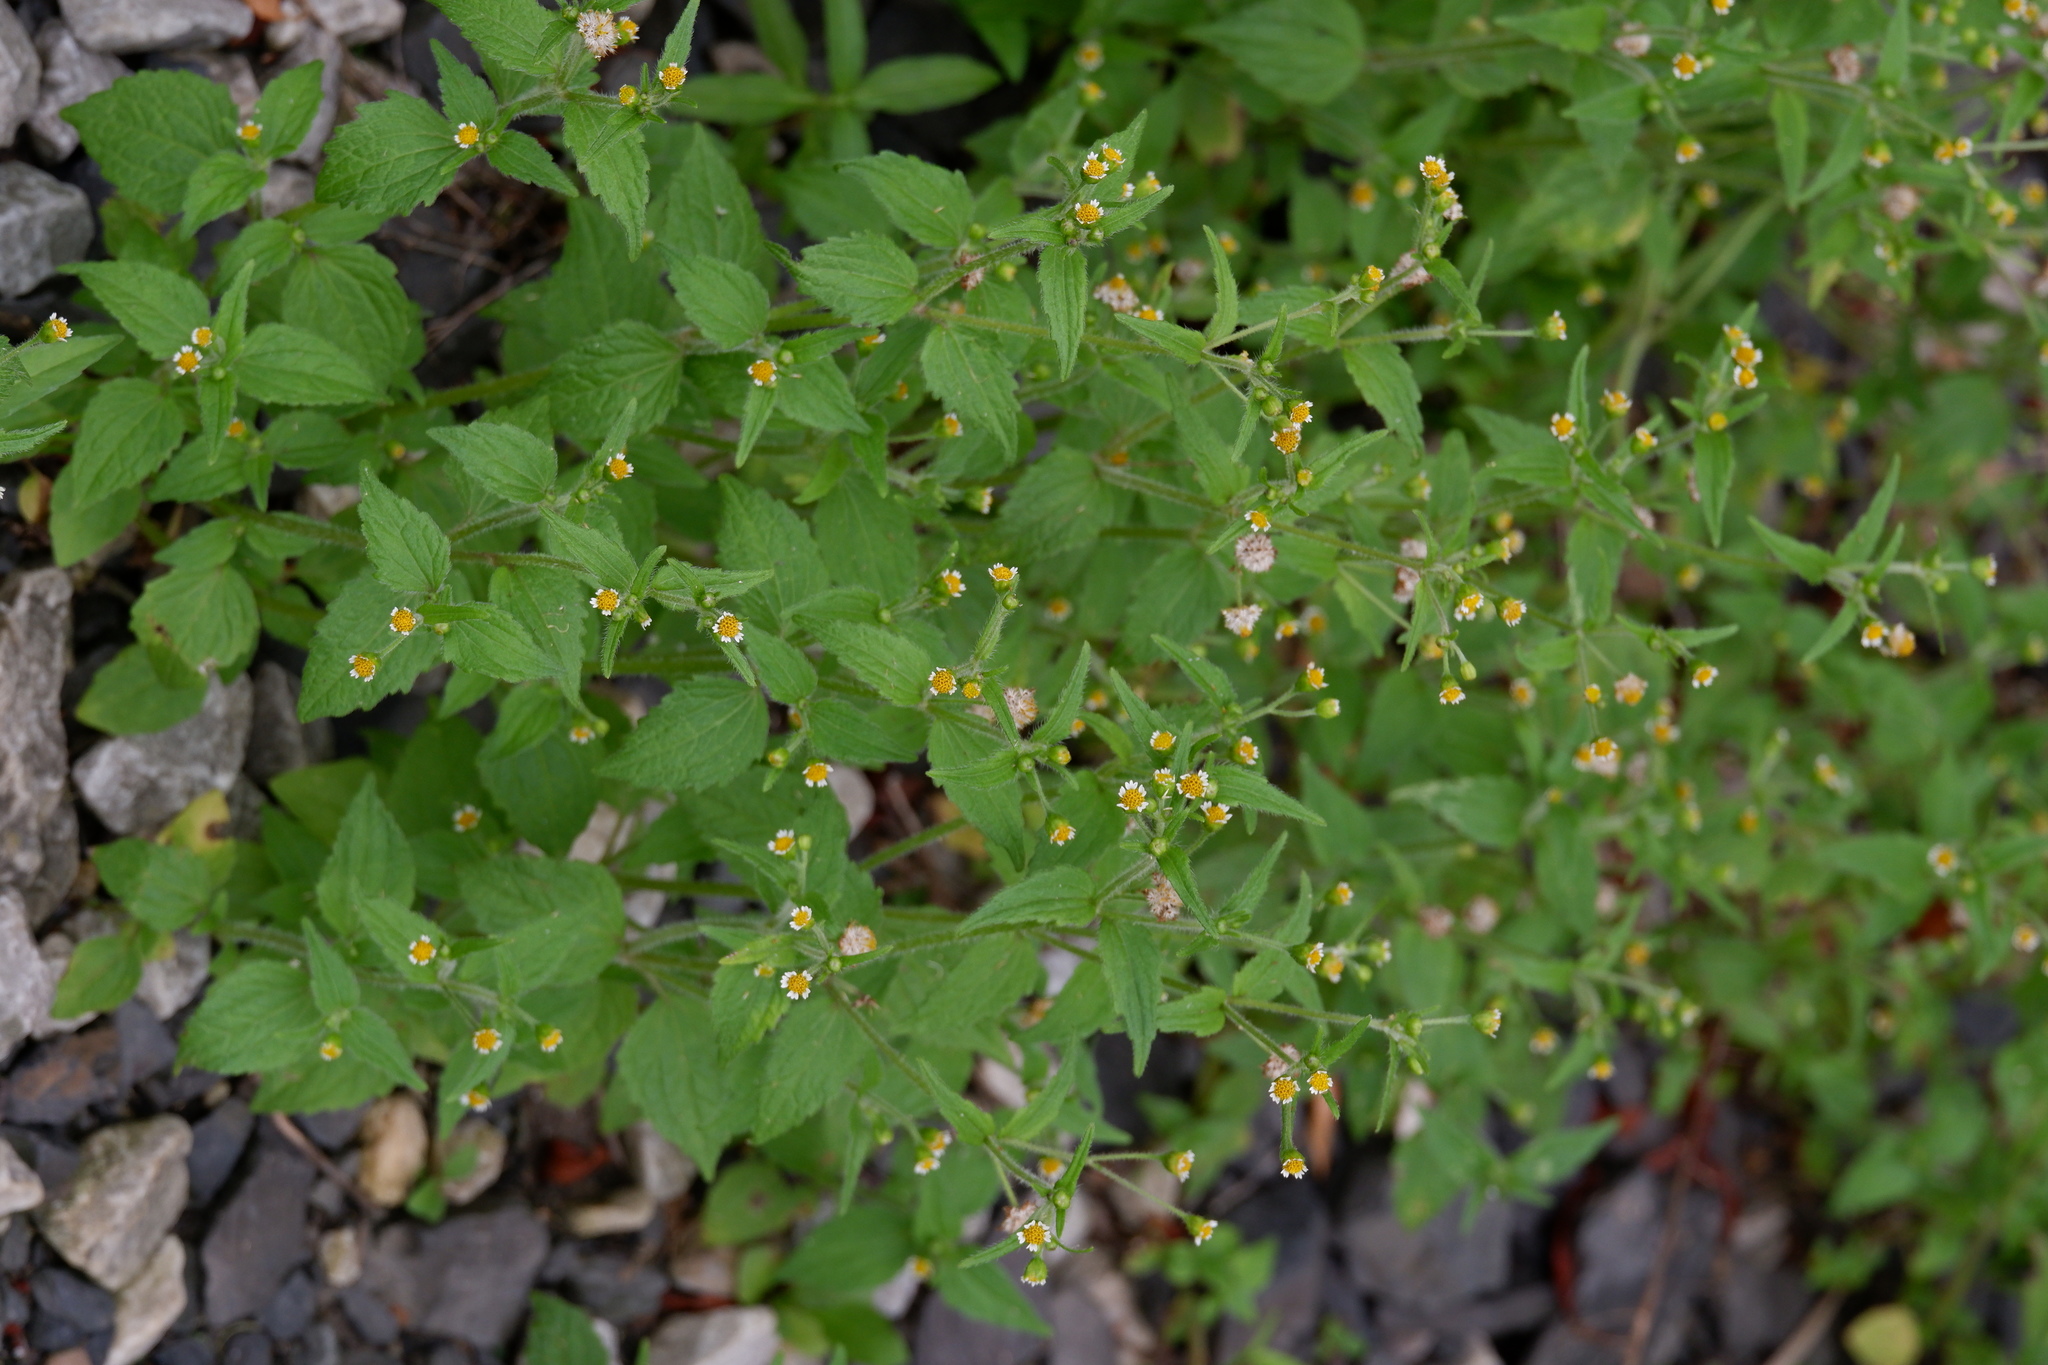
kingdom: Plantae
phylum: Tracheophyta
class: Magnoliopsida
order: Asterales
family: Asteraceae
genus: Galinsoga
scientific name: Galinsoga quadriradiata
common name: Shaggy soldier
